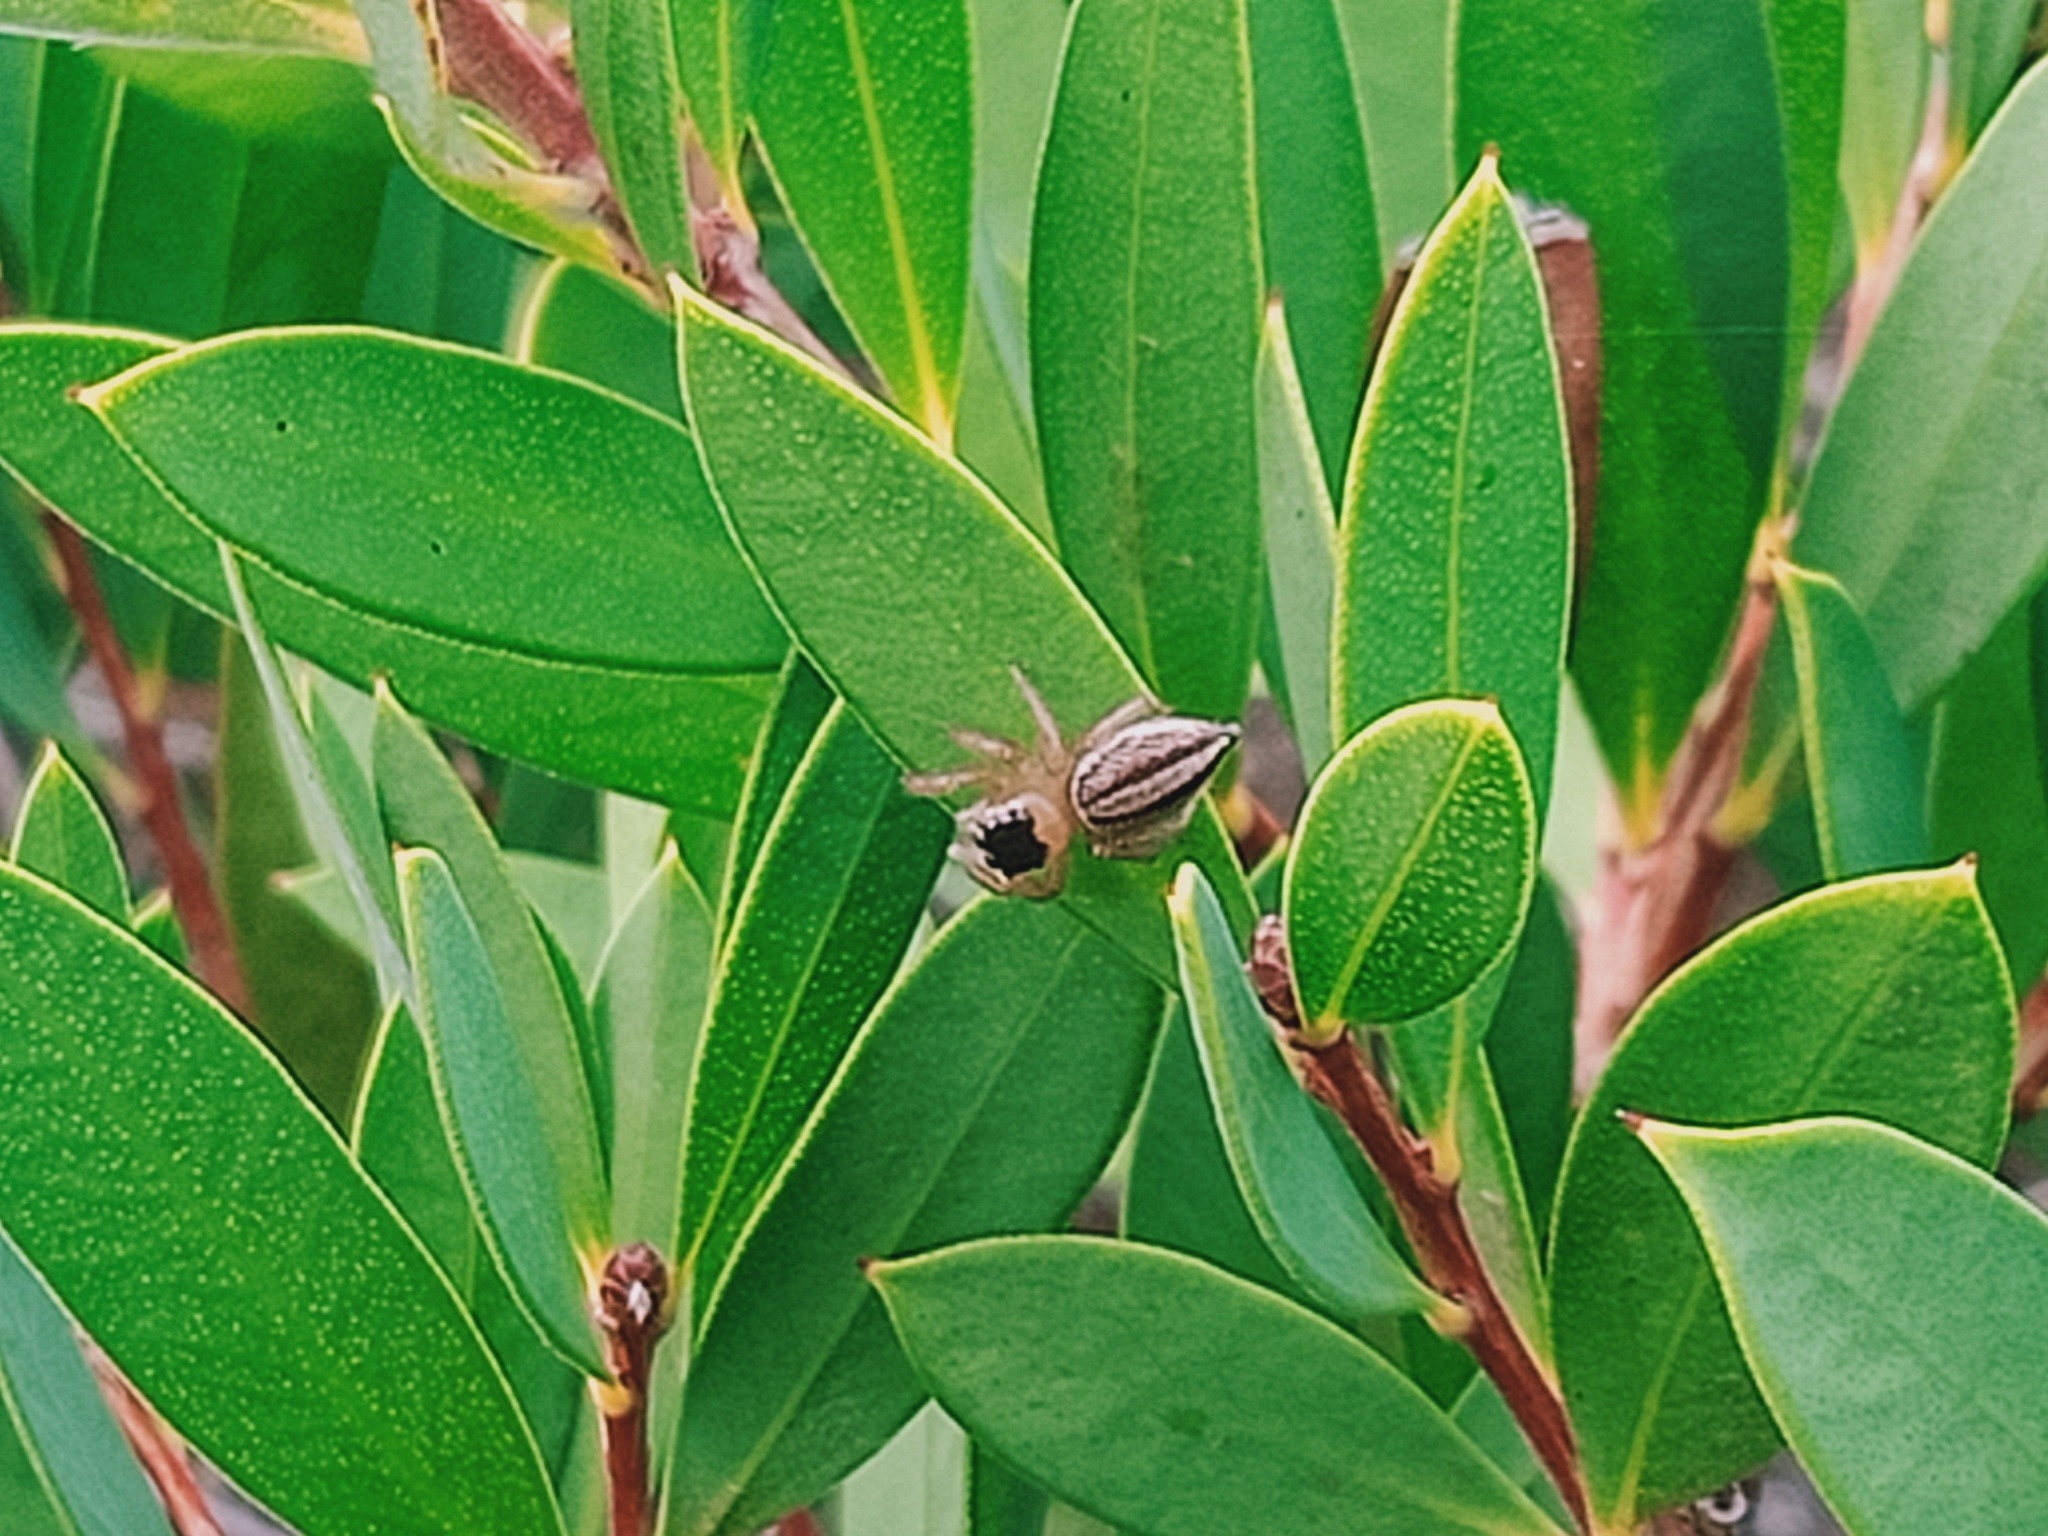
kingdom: Animalia
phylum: Arthropoda
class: Arachnida
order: Araneae
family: Salticidae
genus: Maratus
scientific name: Maratus scutulatus
